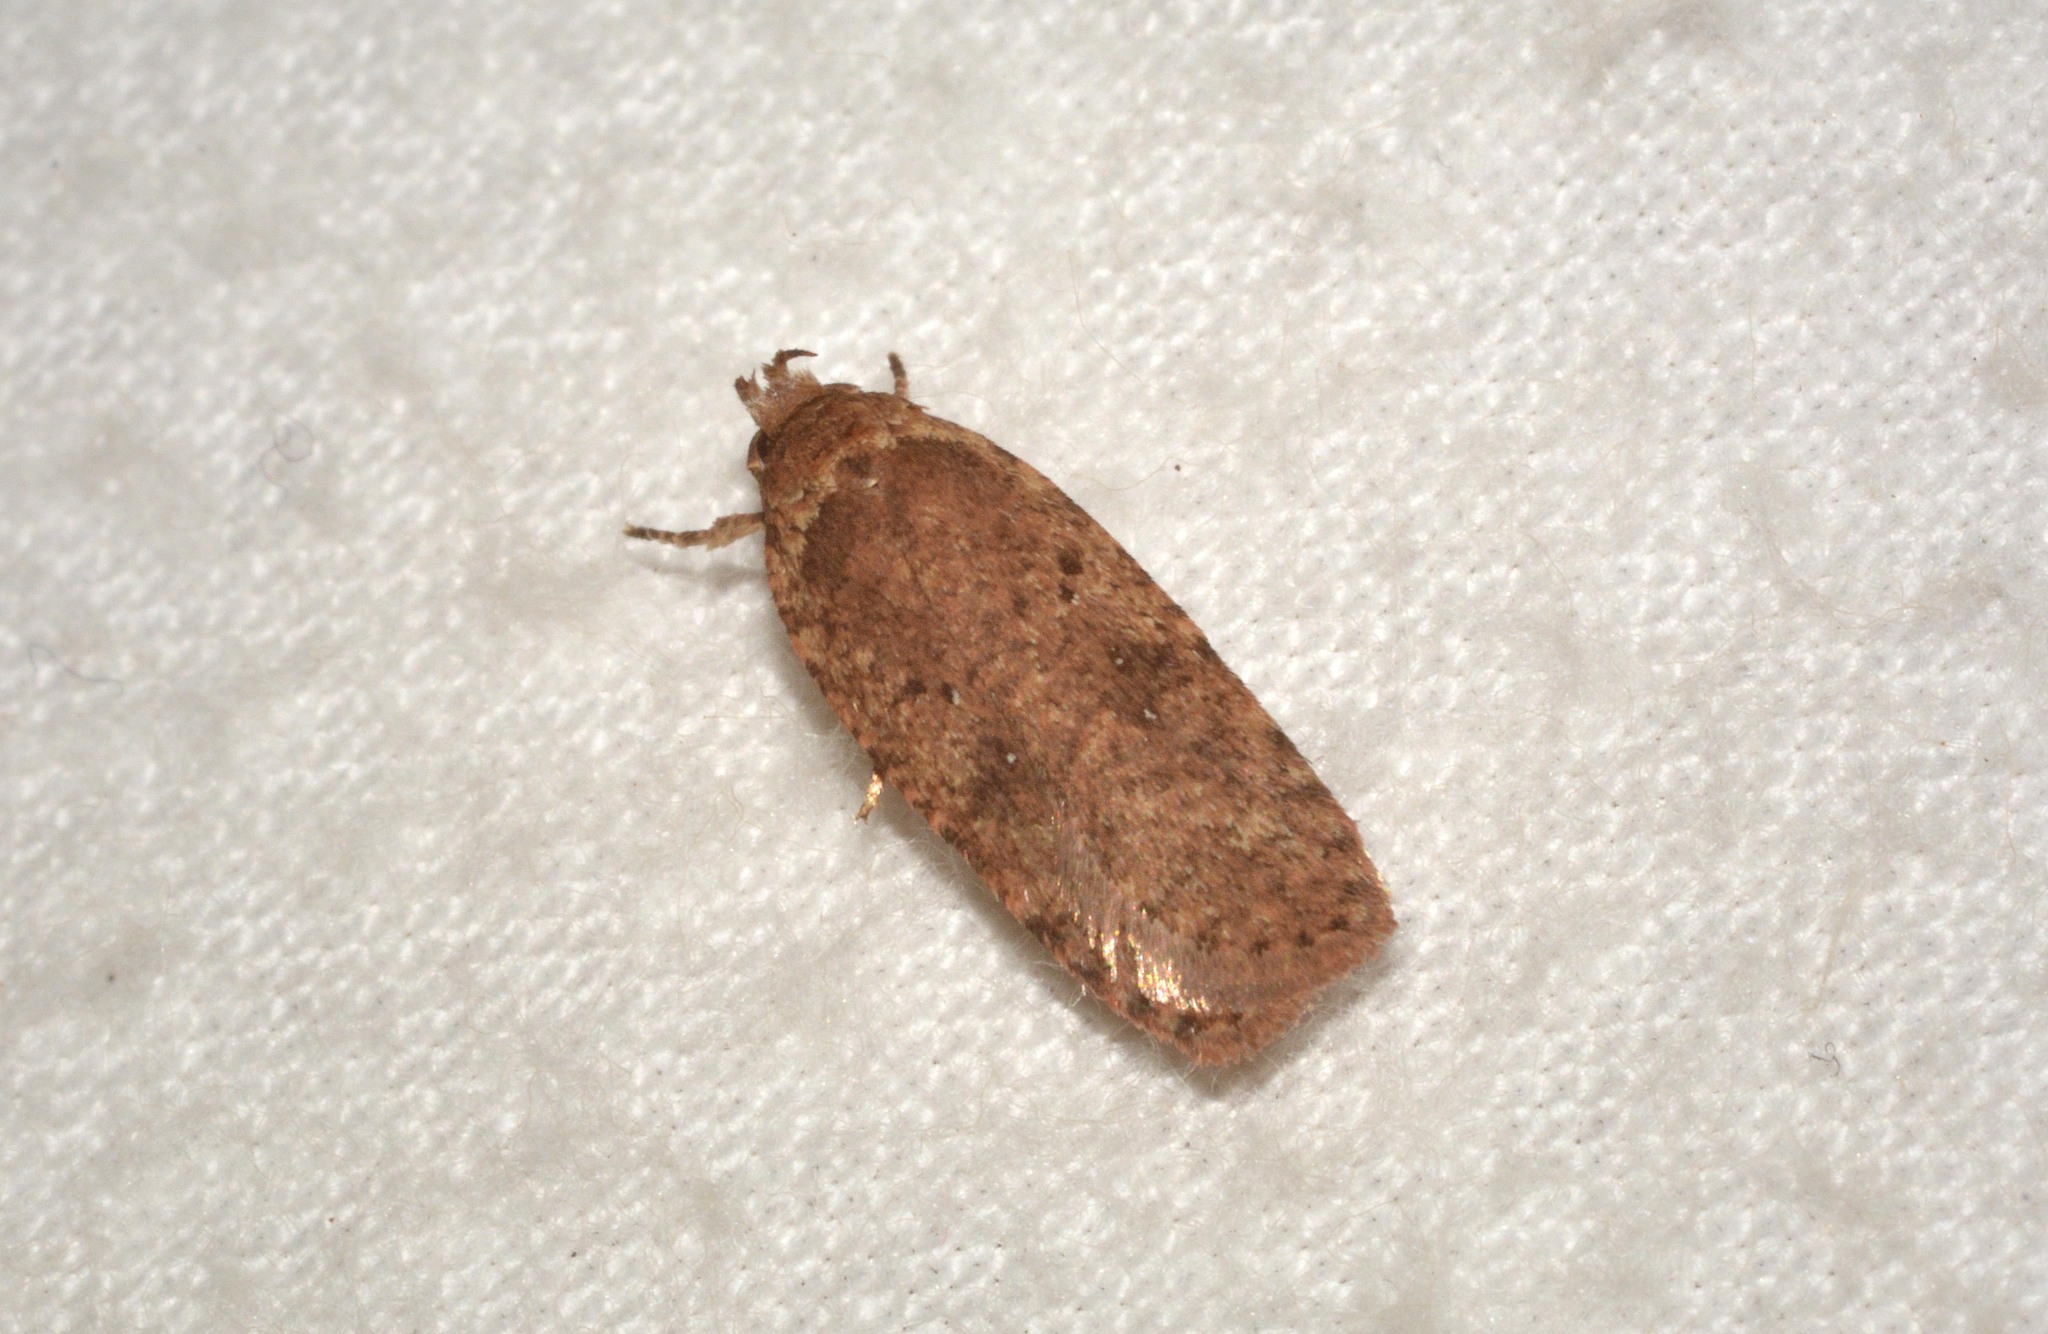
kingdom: Animalia
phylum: Arthropoda
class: Insecta
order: Lepidoptera
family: Depressariidae
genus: Agonopterix
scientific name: Agonopterix
